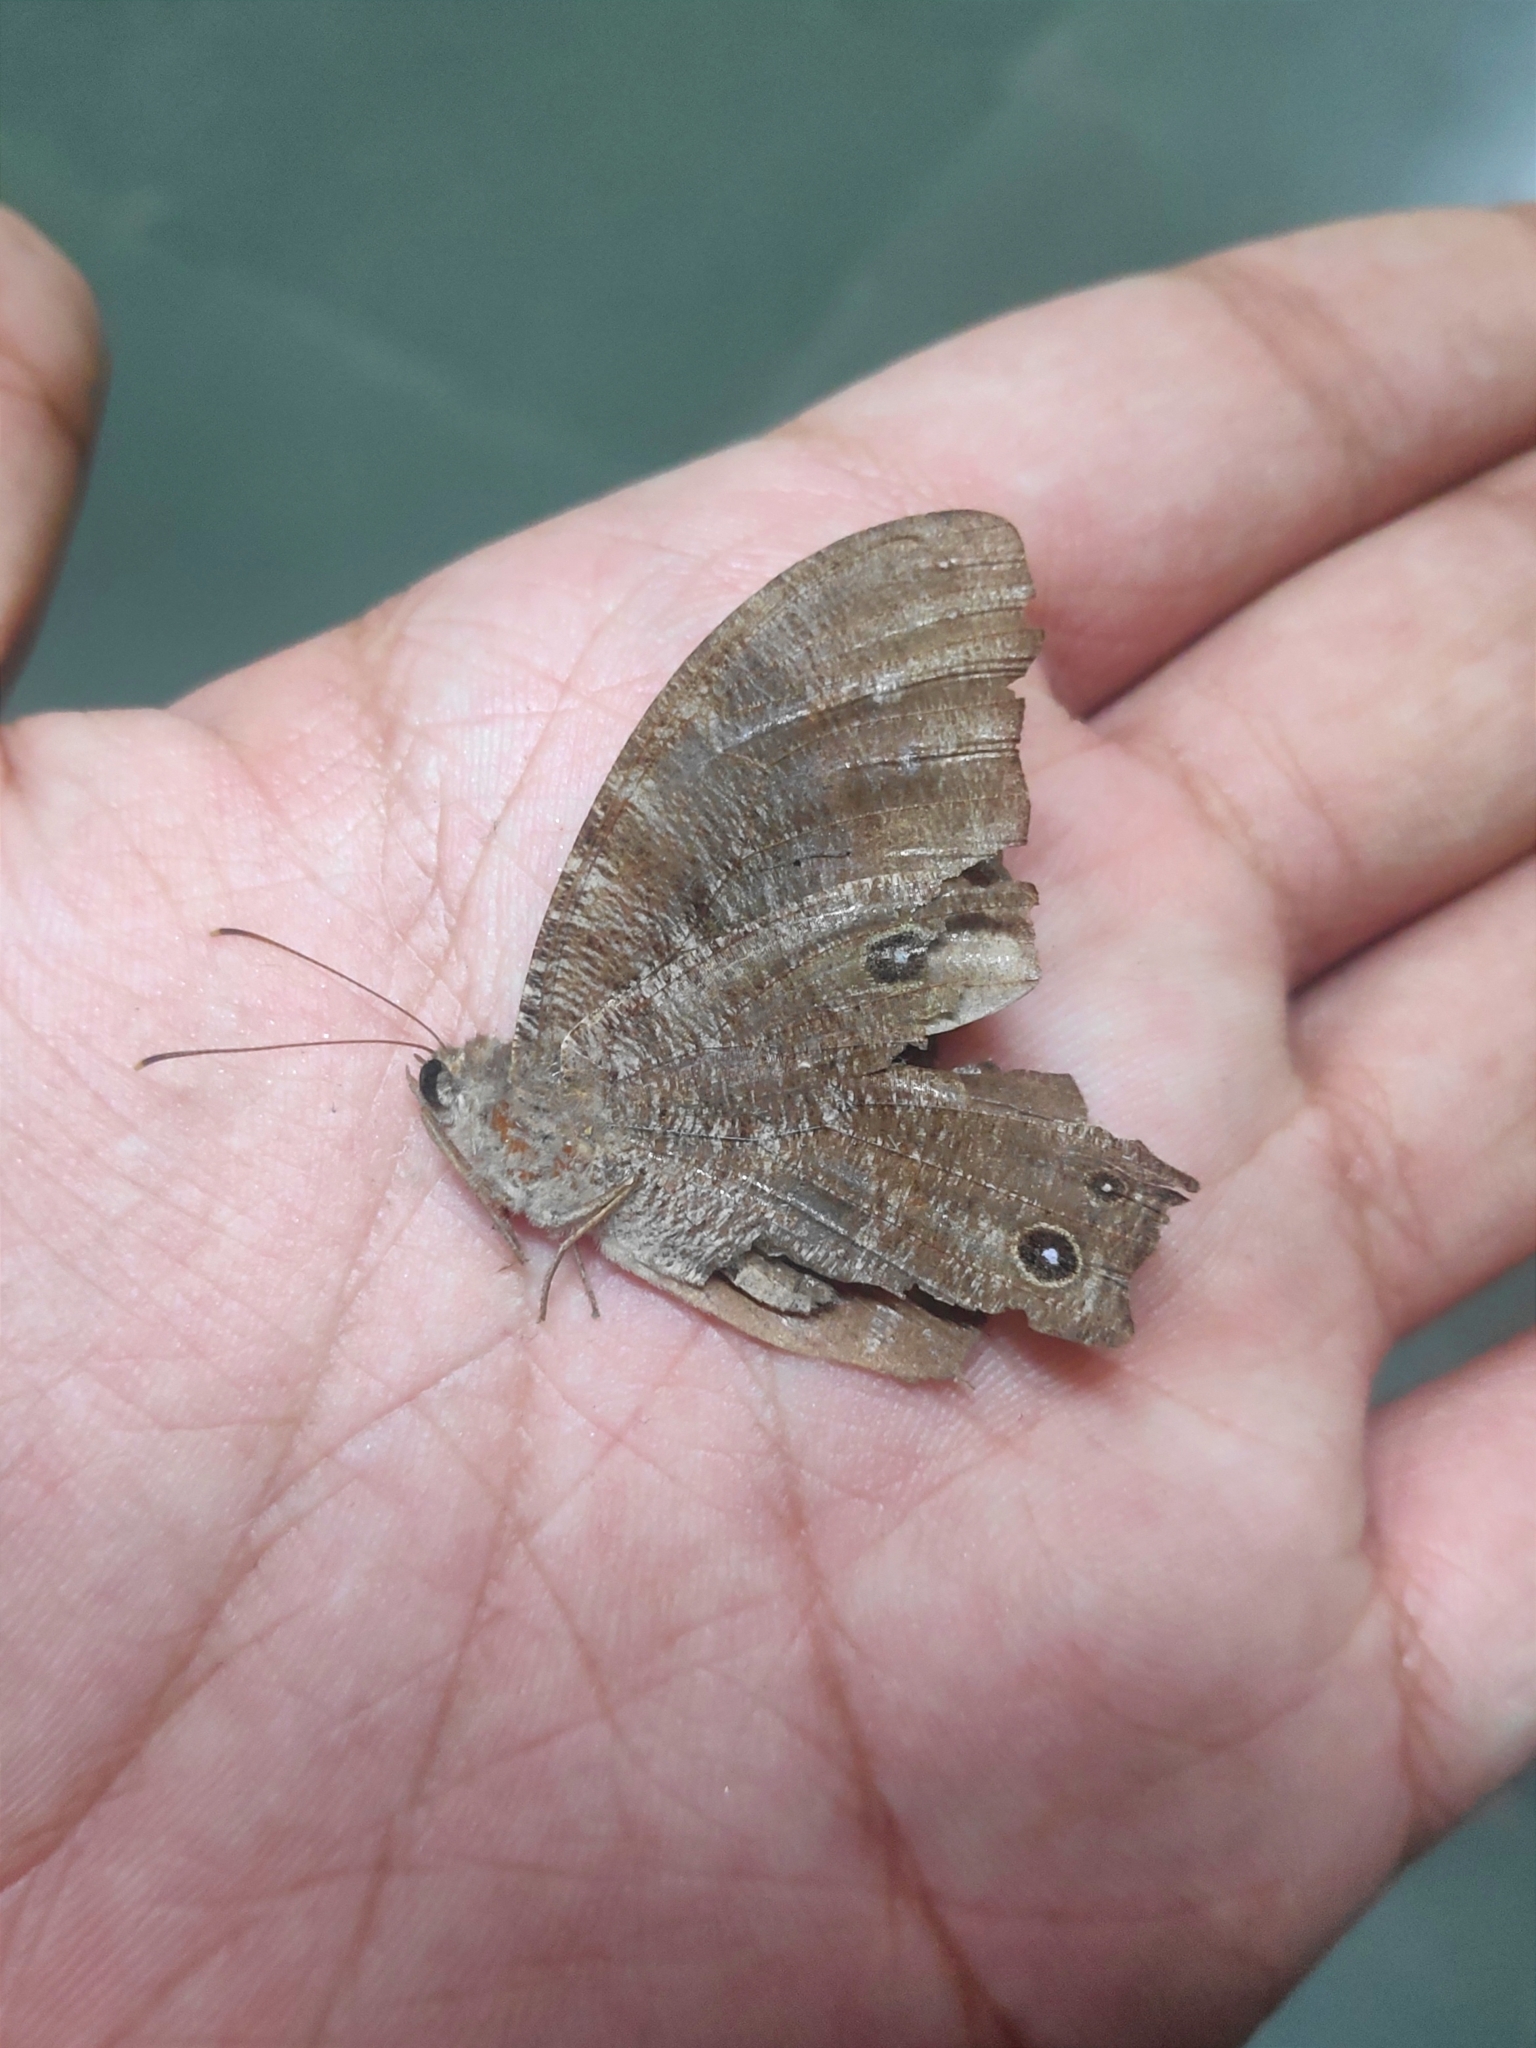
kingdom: Animalia
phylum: Arthropoda
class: Insecta
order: Lepidoptera
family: Nymphalidae
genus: Melanitis
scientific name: Melanitis leda
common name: Twilight brown
